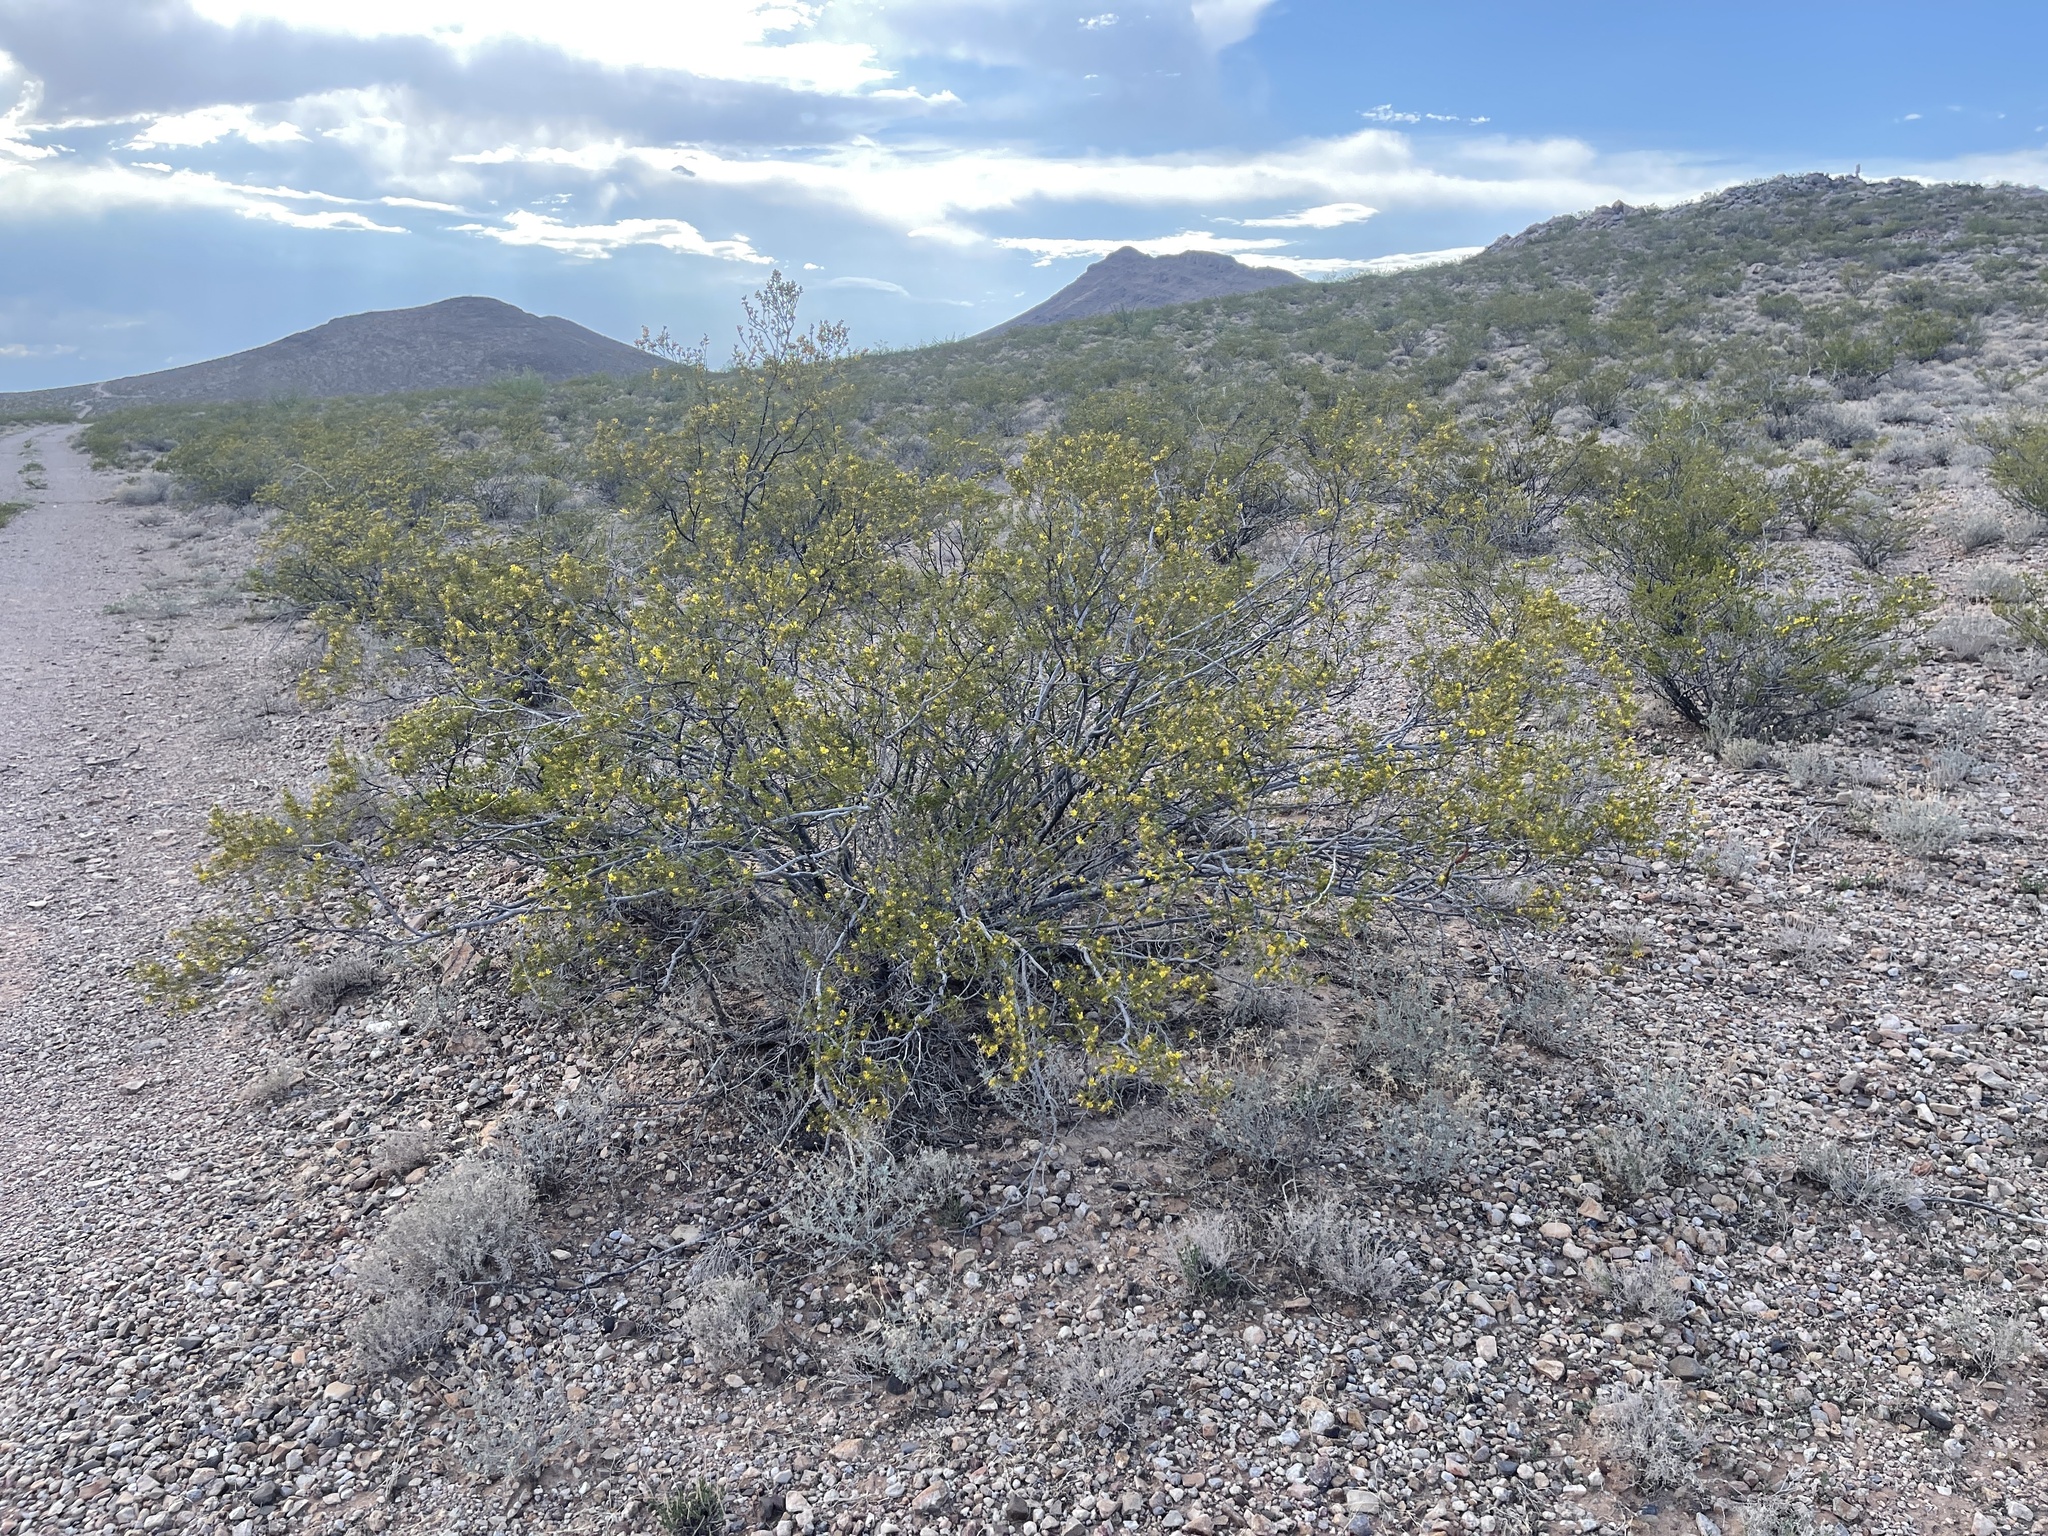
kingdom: Plantae
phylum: Tracheophyta
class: Magnoliopsida
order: Zygophyllales
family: Zygophyllaceae
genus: Larrea
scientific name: Larrea tridentata
